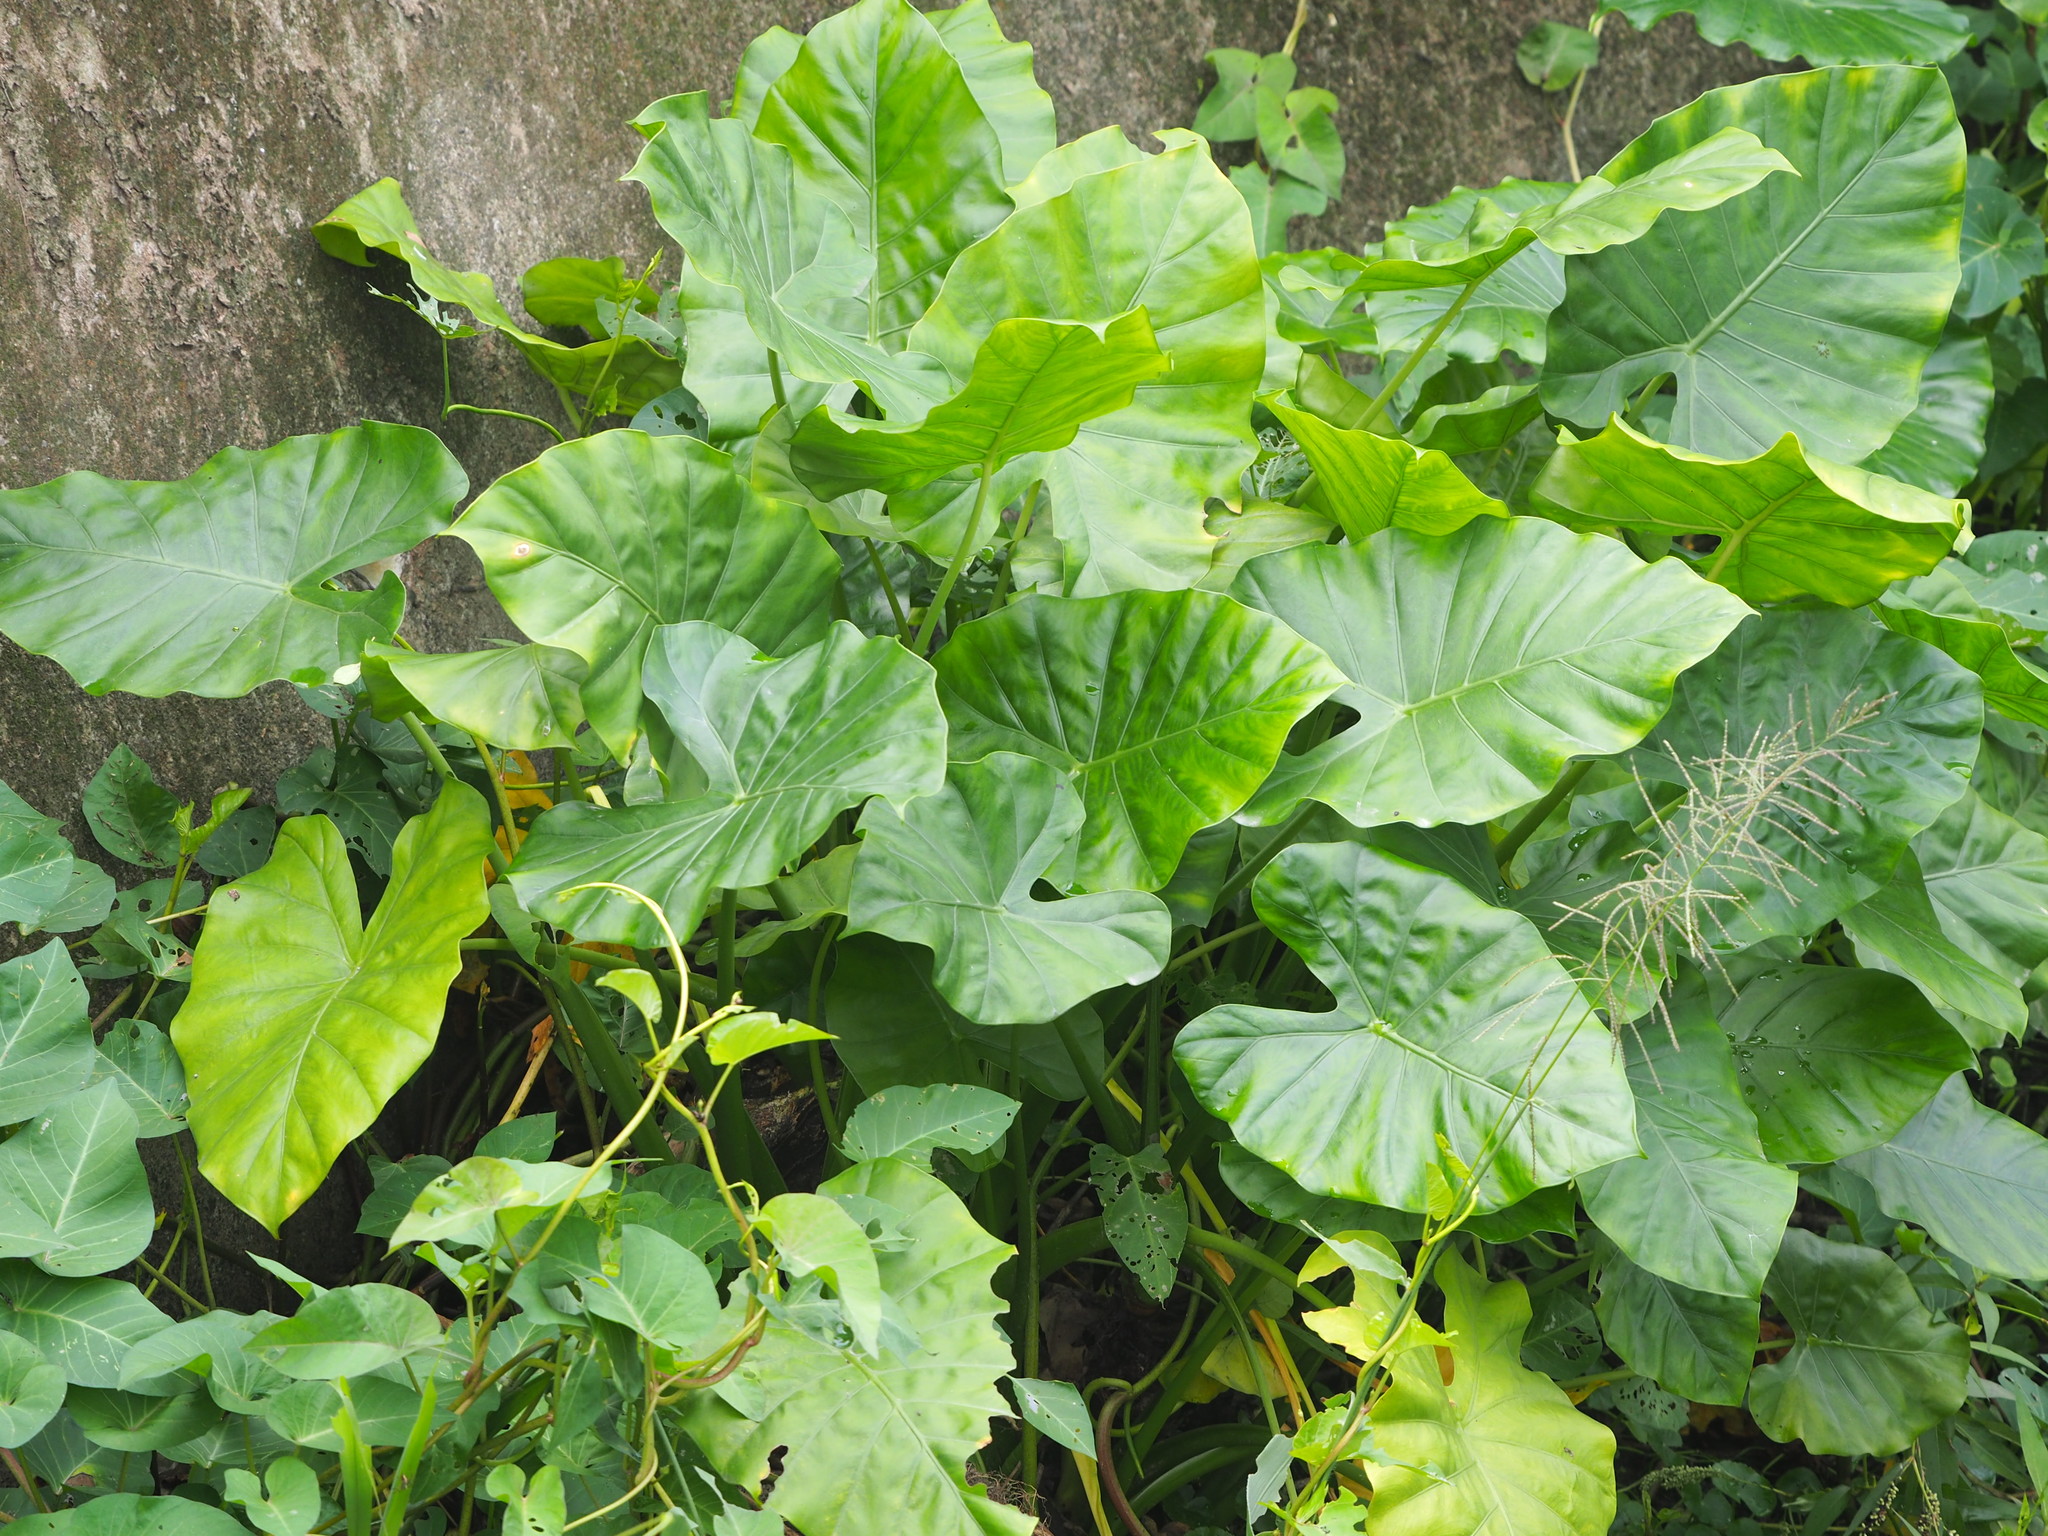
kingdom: Plantae
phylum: Tracheophyta
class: Liliopsida
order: Alismatales
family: Araceae
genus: Alocasia
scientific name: Alocasia odora
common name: Asian taro
